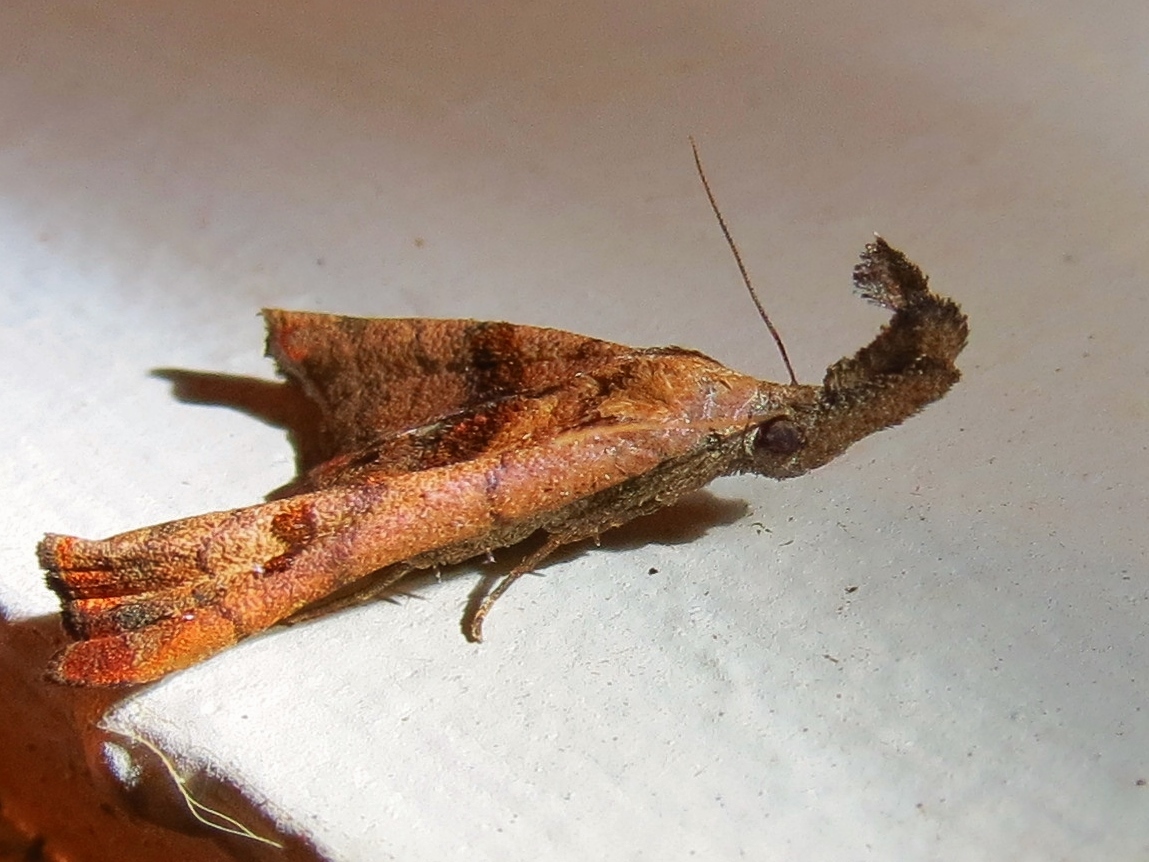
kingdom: Animalia
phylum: Arthropoda
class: Insecta
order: Lepidoptera
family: Erebidae
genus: Palthis
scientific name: Palthis angulalis
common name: Dark-spotted palthis moth
